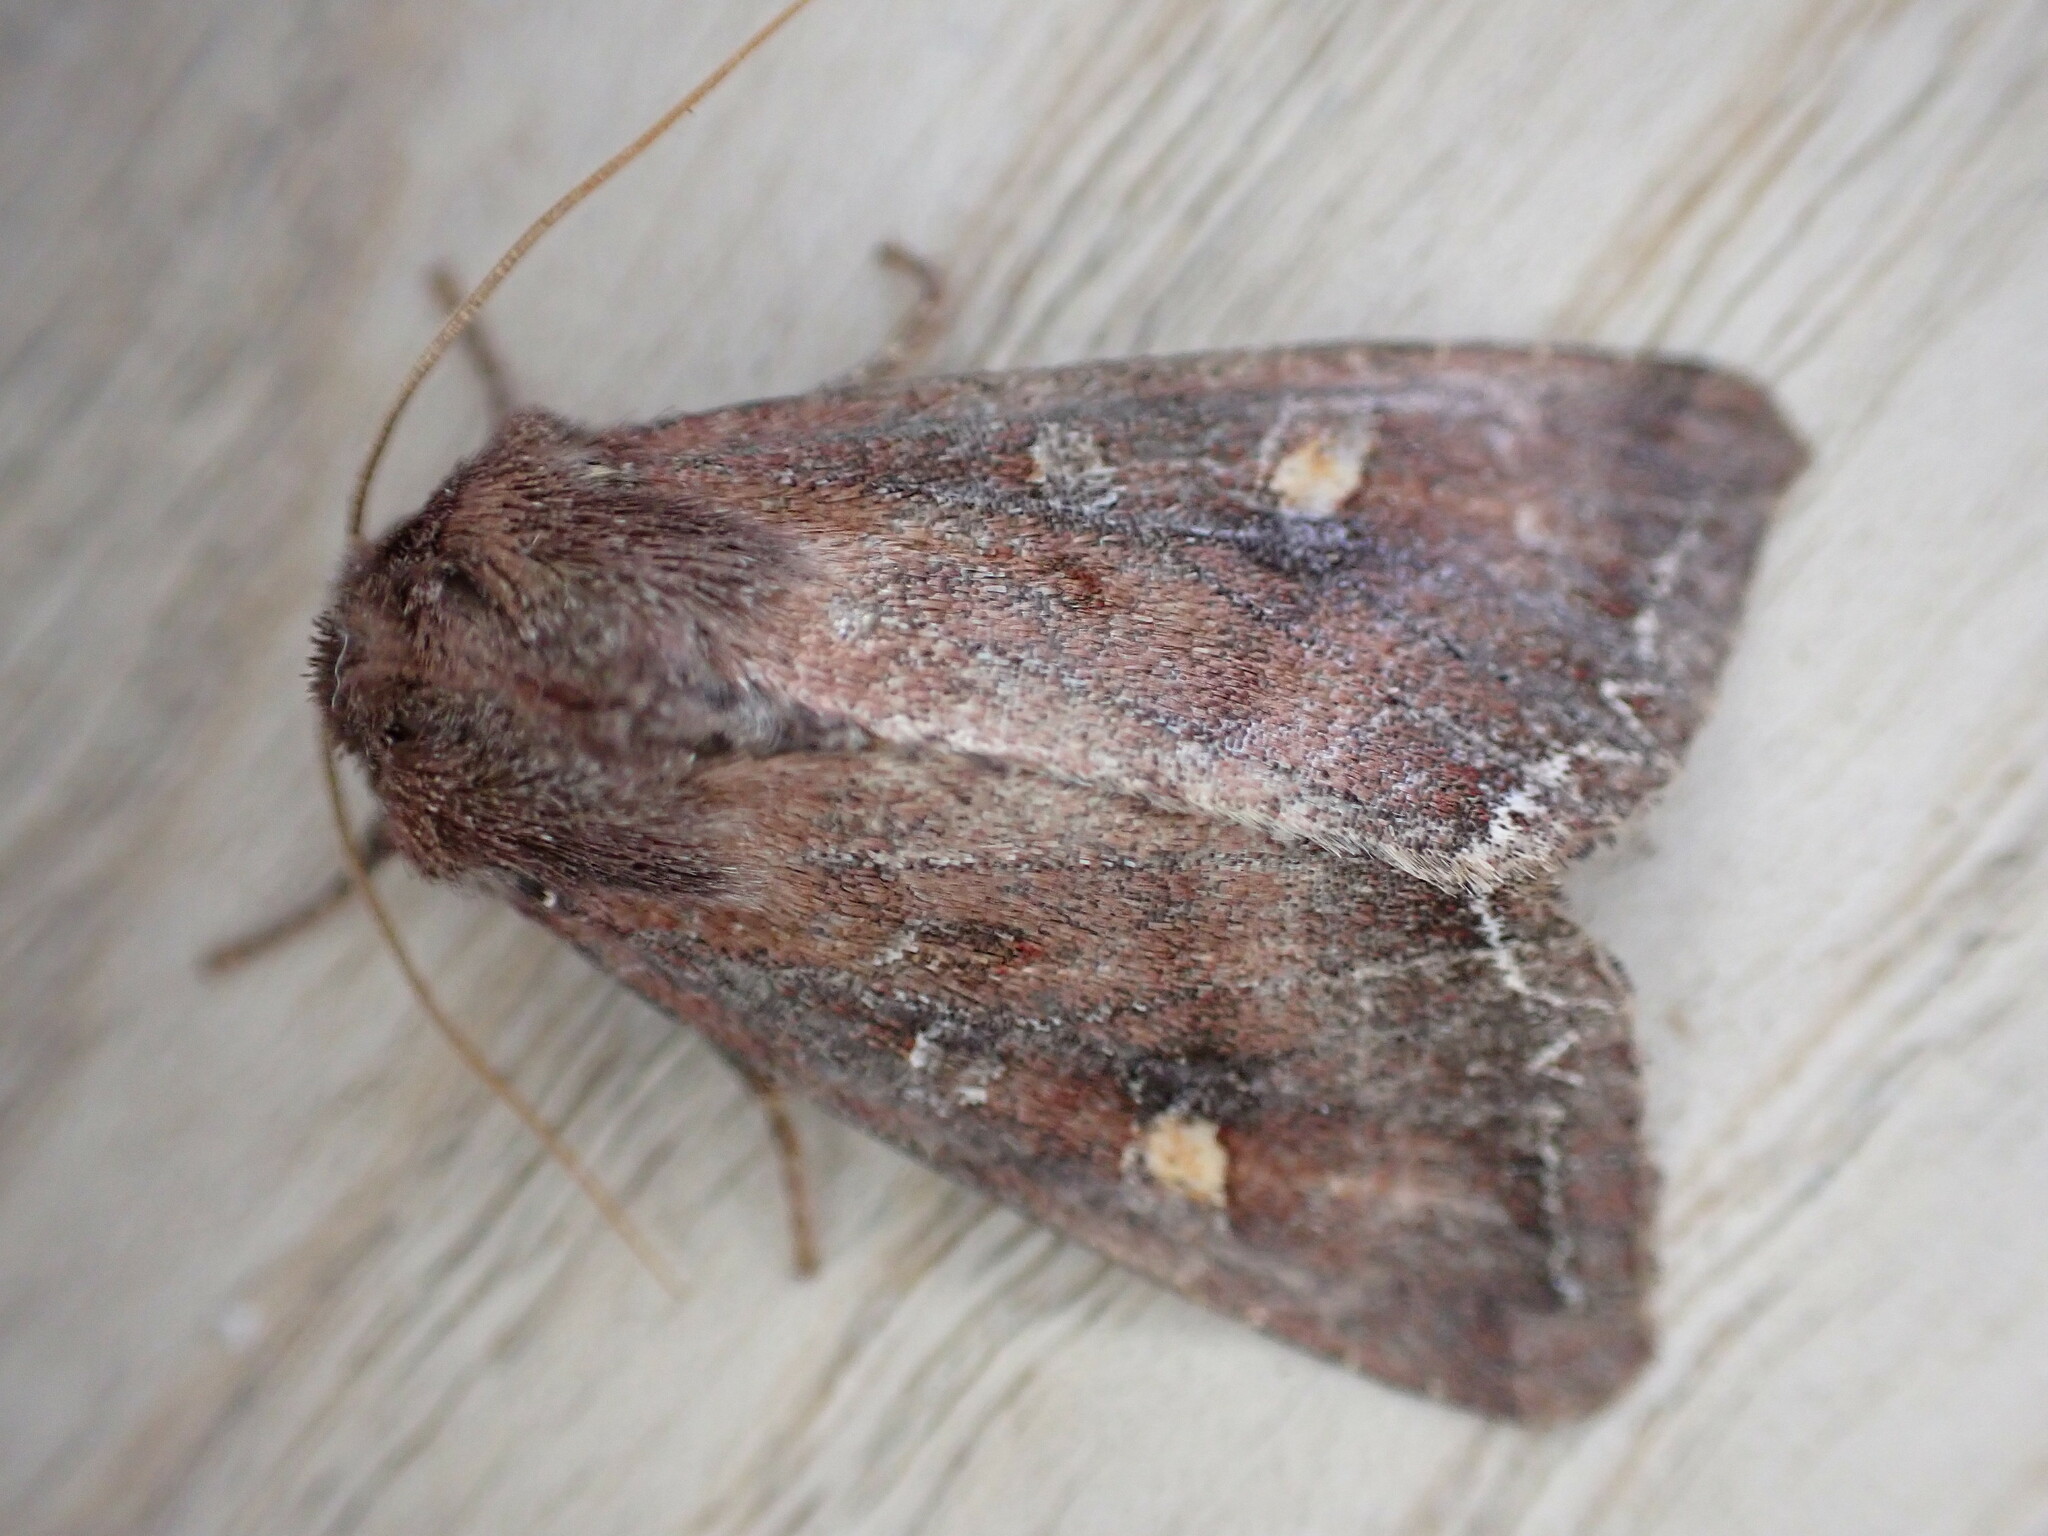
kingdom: Animalia
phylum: Arthropoda
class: Insecta
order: Lepidoptera
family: Noctuidae
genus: Lacanobia
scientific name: Lacanobia oleracea
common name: Bright-line brown-eye
